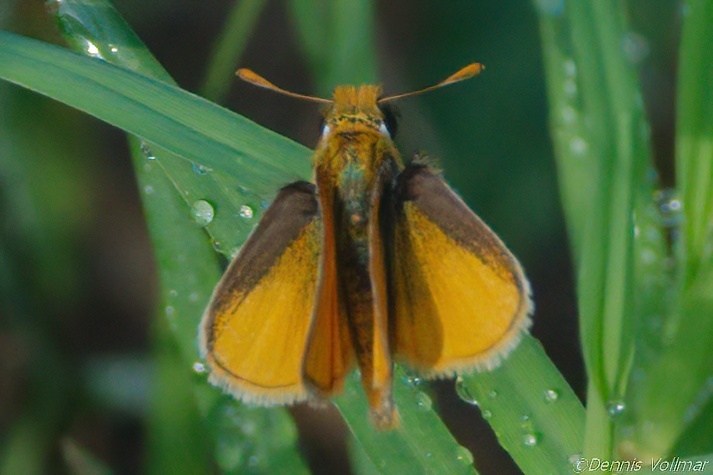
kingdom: Animalia
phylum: Arthropoda
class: Insecta
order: Lepidoptera
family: Hesperiidae
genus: Copaeodes
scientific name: Copaeodes minima
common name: Southern skipperling
